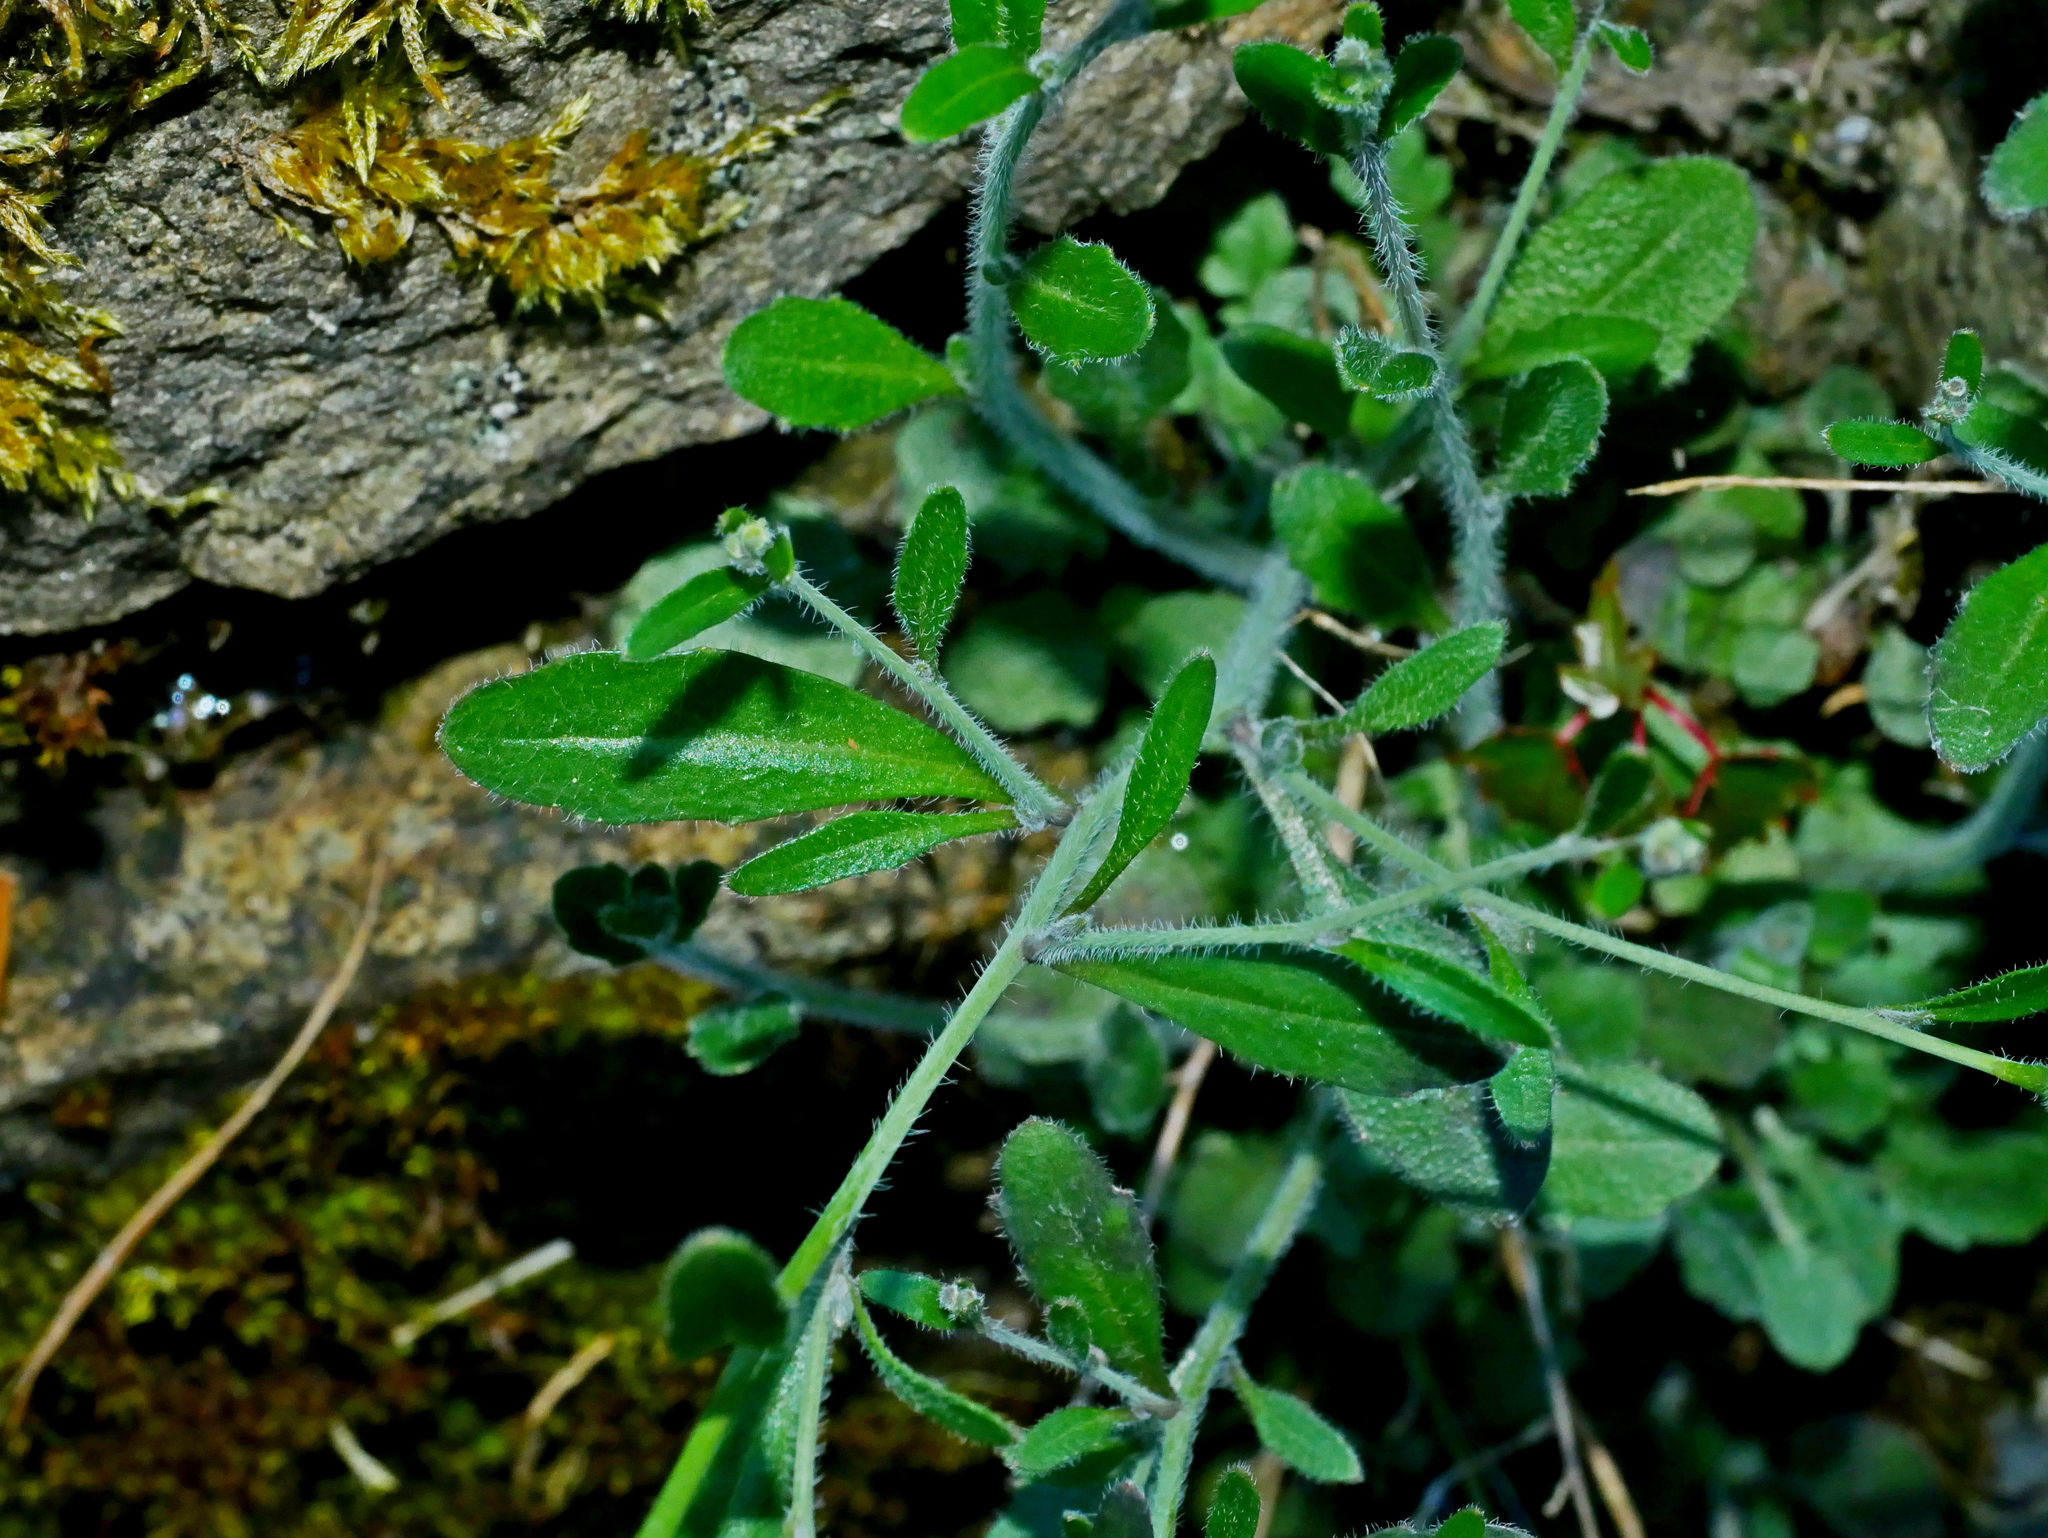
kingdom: Plantae
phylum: Tracheophyta
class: Magnoliopsida
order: Brassicales
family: Brassicaceae
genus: Arabidopsis
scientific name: Arabidopsis lyrata
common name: Lyrate rockcress
